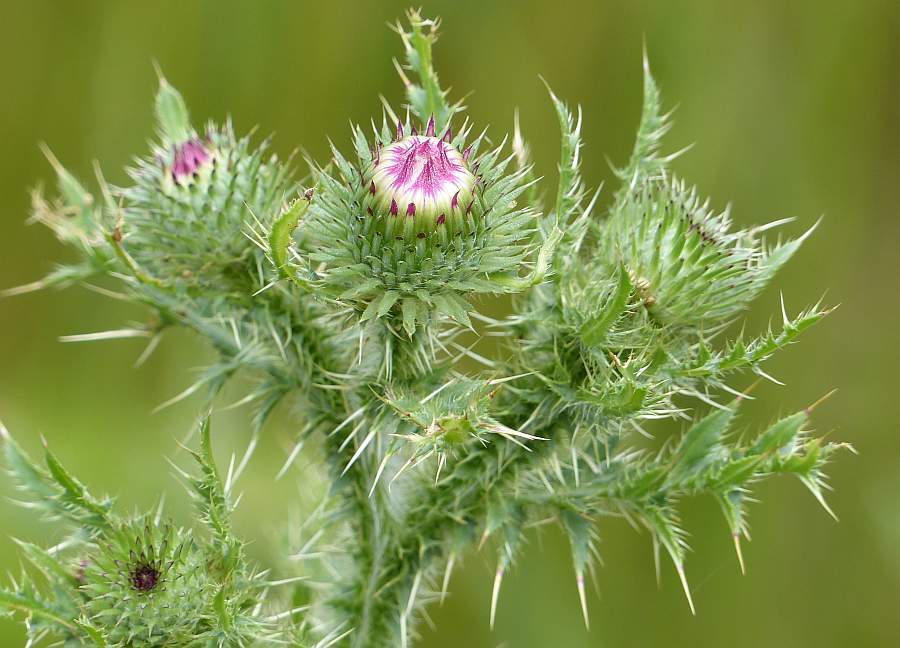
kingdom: Plantae
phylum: Tracheophyta
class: Magnoliopsida
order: Asterales
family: Asteraceae
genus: Carduus
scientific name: Carduus acanthoides
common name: Plumeless thistle
